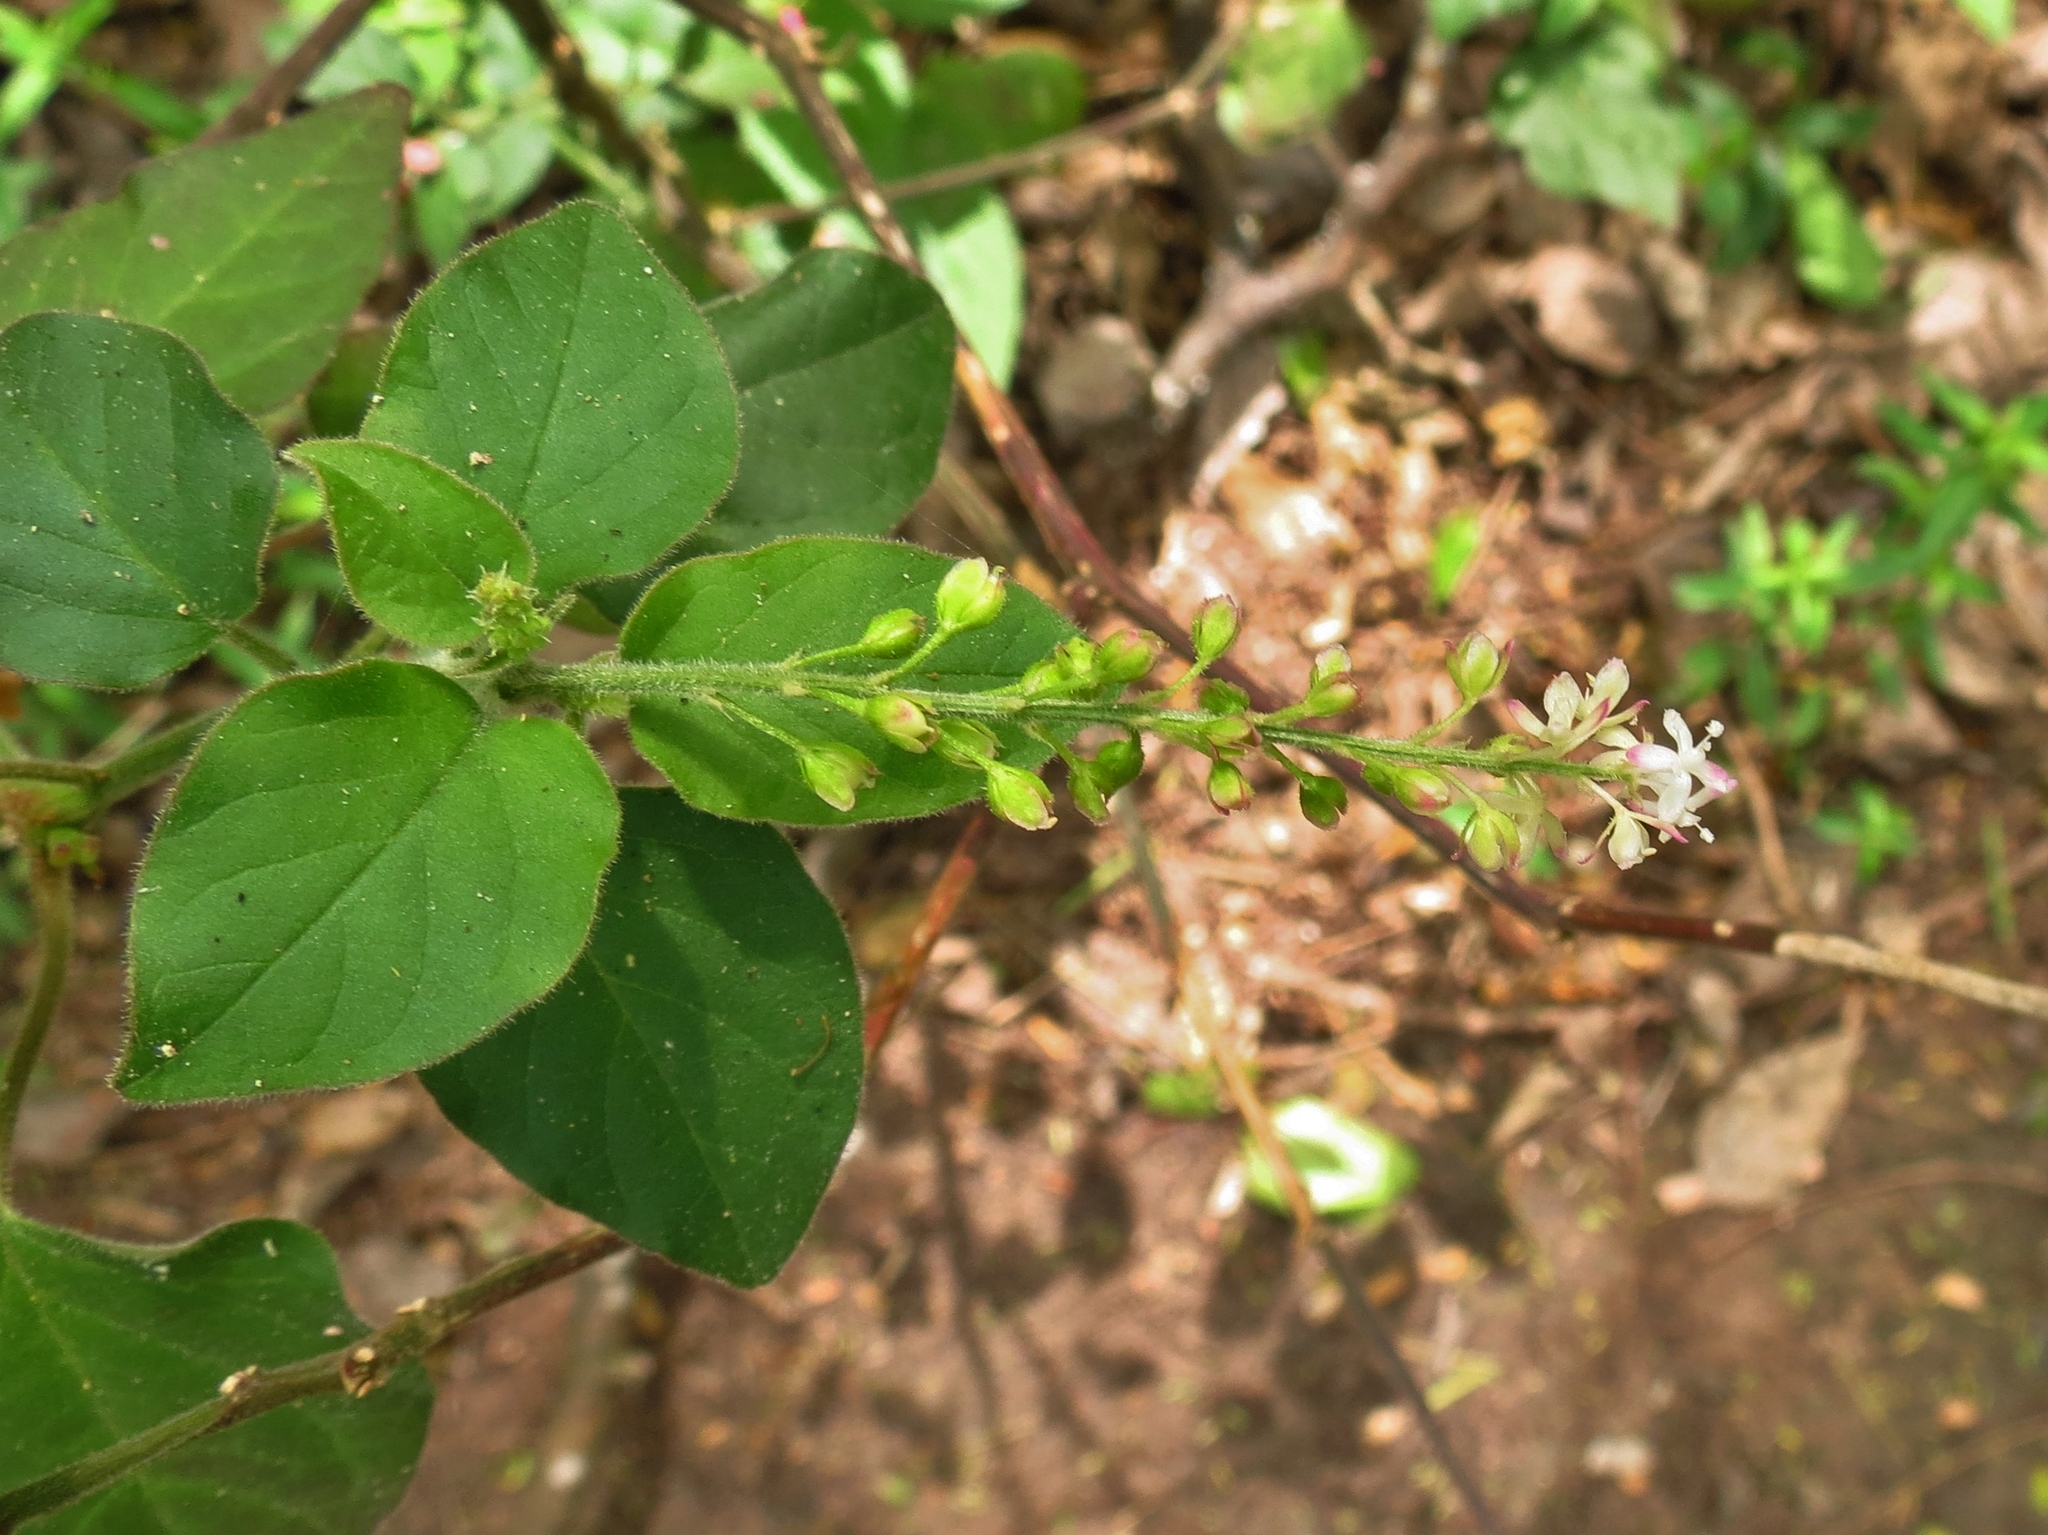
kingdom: Plantae
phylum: Tracheophyta
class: Magnoliopsida
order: Caryophyllales
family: Phytolaccaceae
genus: Rivina
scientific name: Rivina humilis
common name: Rougeplant
